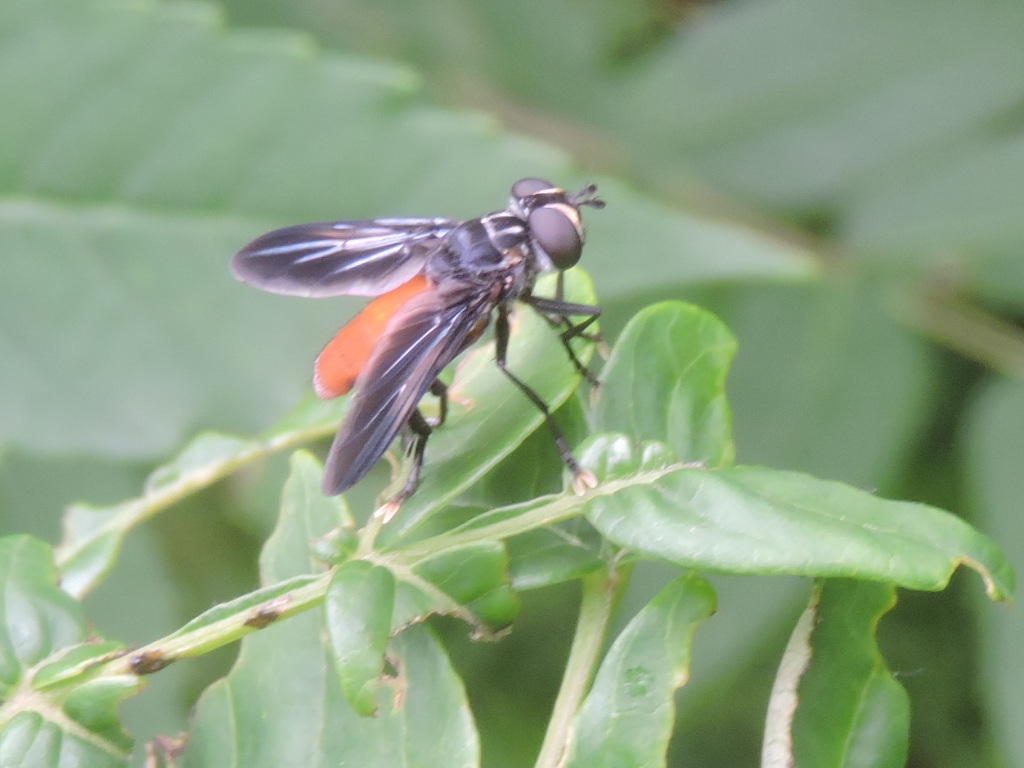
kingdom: Animalia
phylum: Arthropoda
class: Insecta
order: Diptera
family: Tachinidae
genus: Trichopoda
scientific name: Trichopoda pennipes
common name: Tachinid fly
